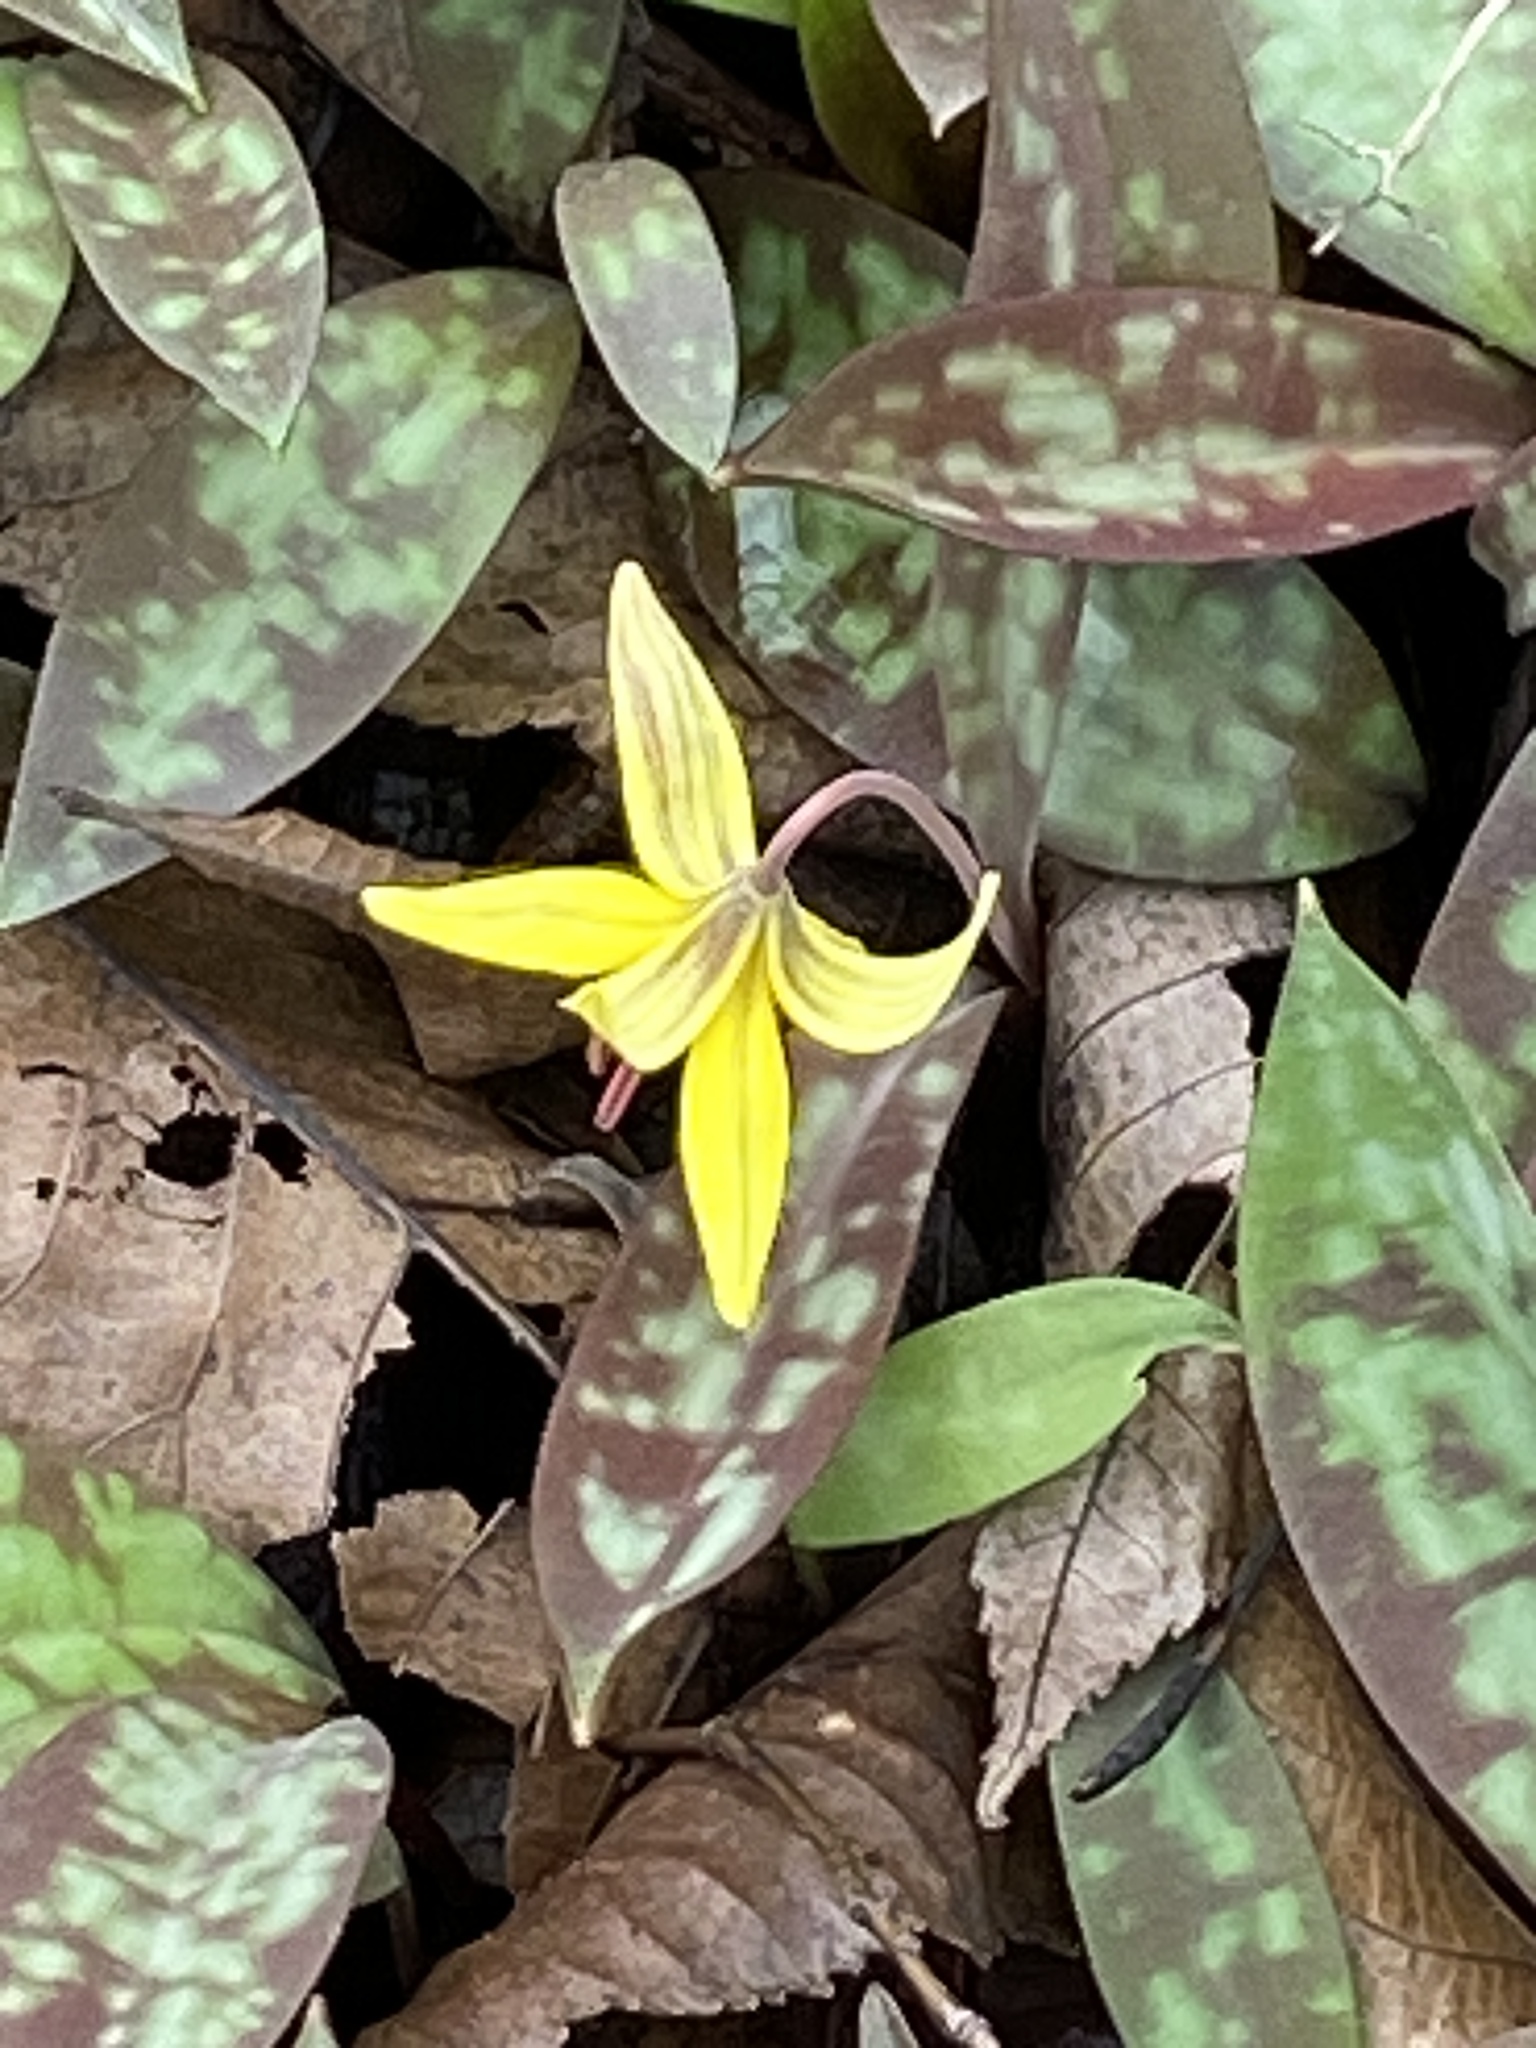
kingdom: Plantae
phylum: Tracheophyta
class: Liliopsida
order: Liliales
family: Liliaceae
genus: Erythronium
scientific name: Erythronium americanum
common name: Yellow adder's-tongue
